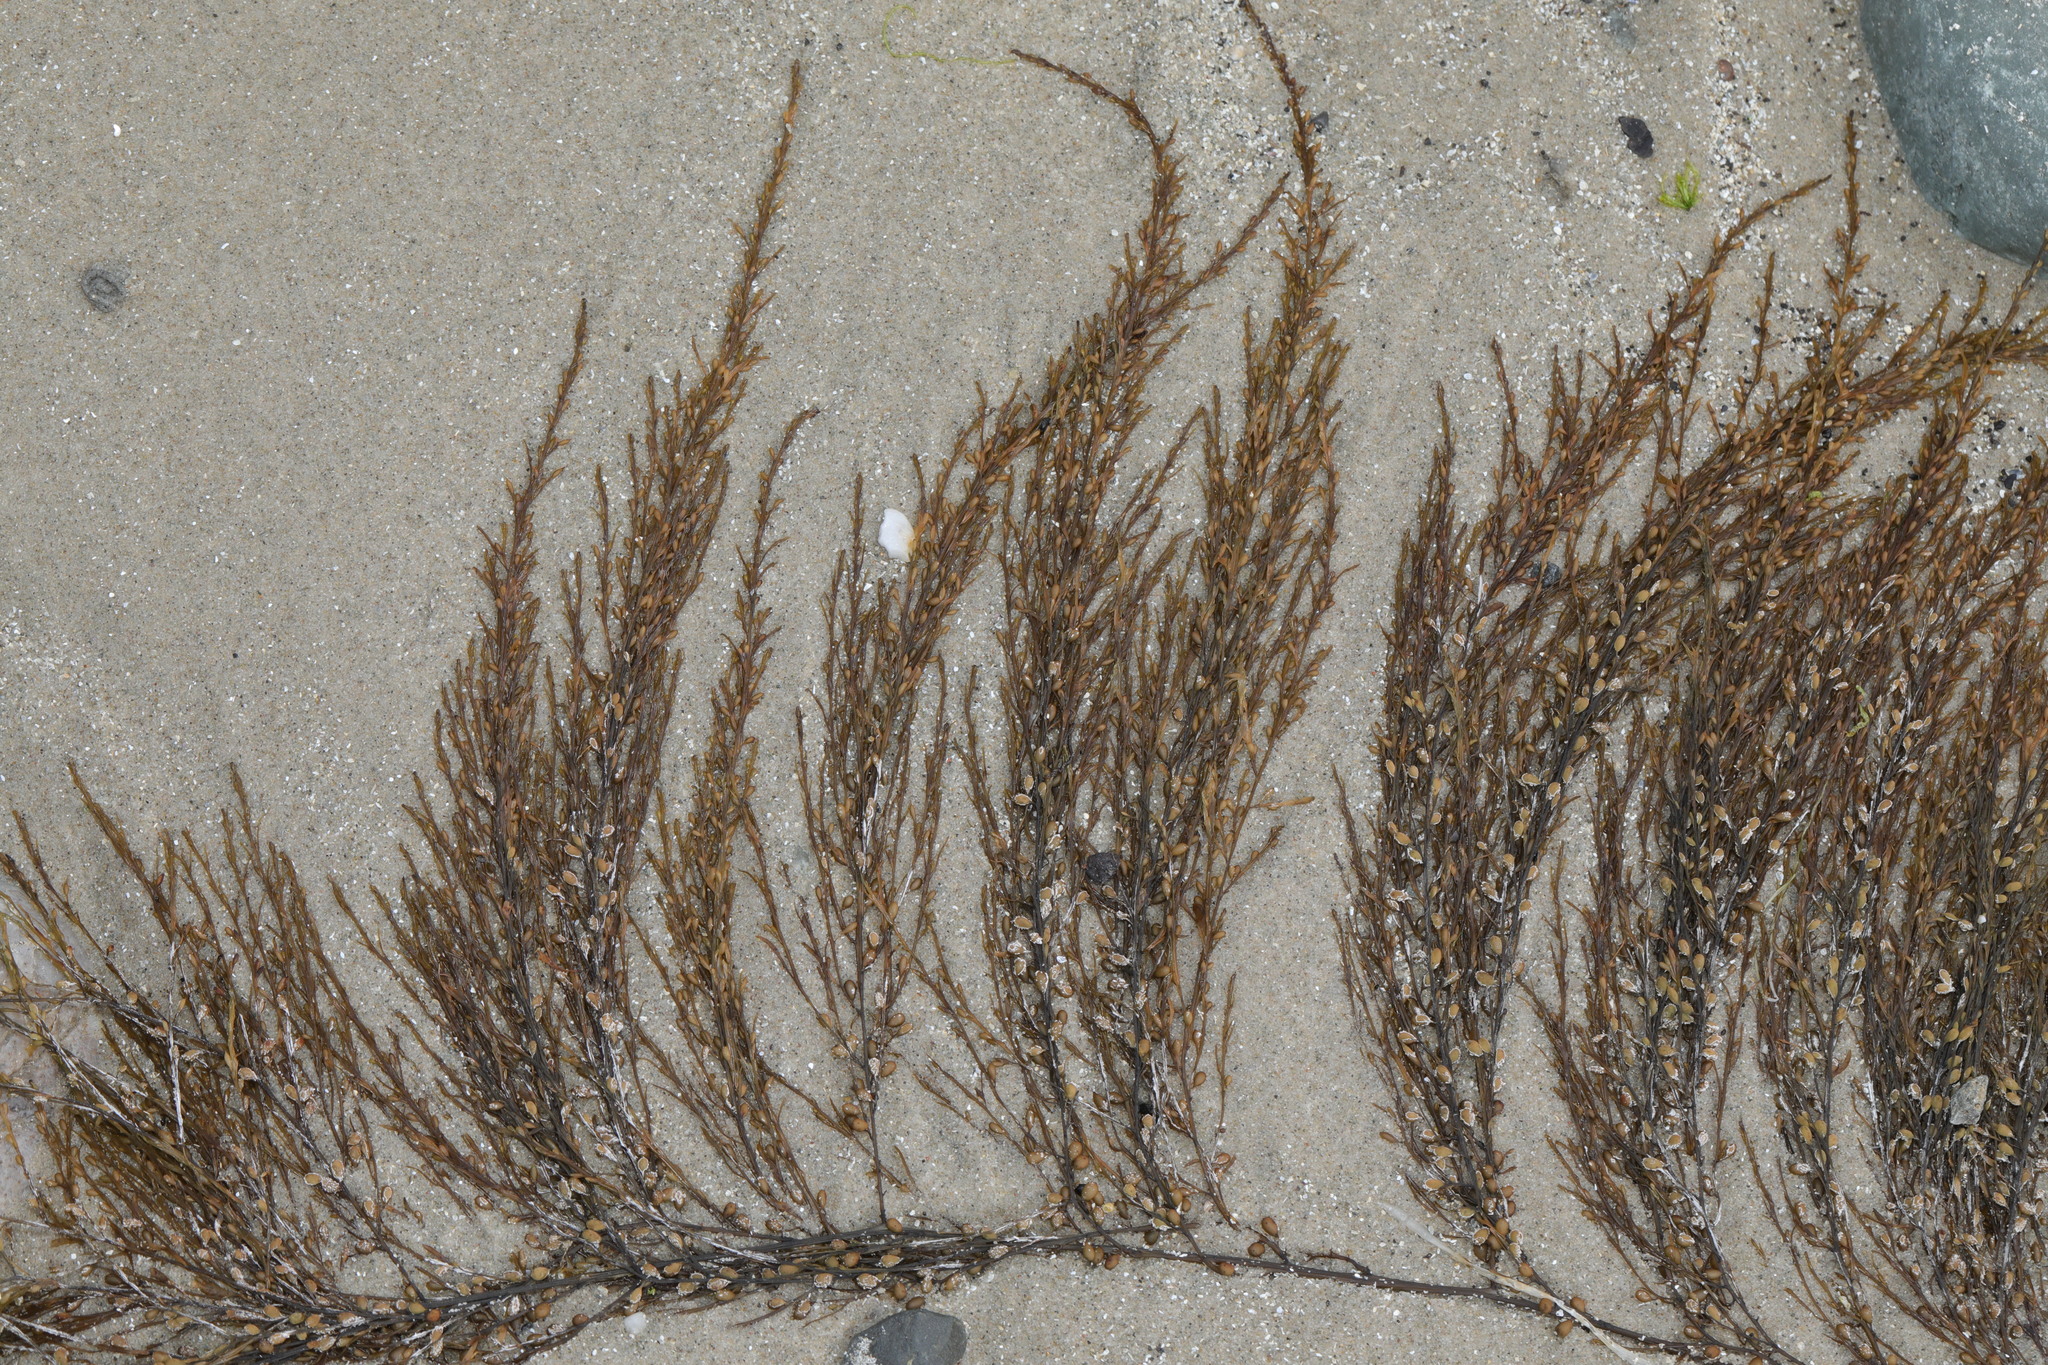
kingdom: Chromista
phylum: Ochrophyta
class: Phaeophyceae
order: Fucales
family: Sargassaceae
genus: Sargassum
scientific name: Sargassum muticum
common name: Japweed
